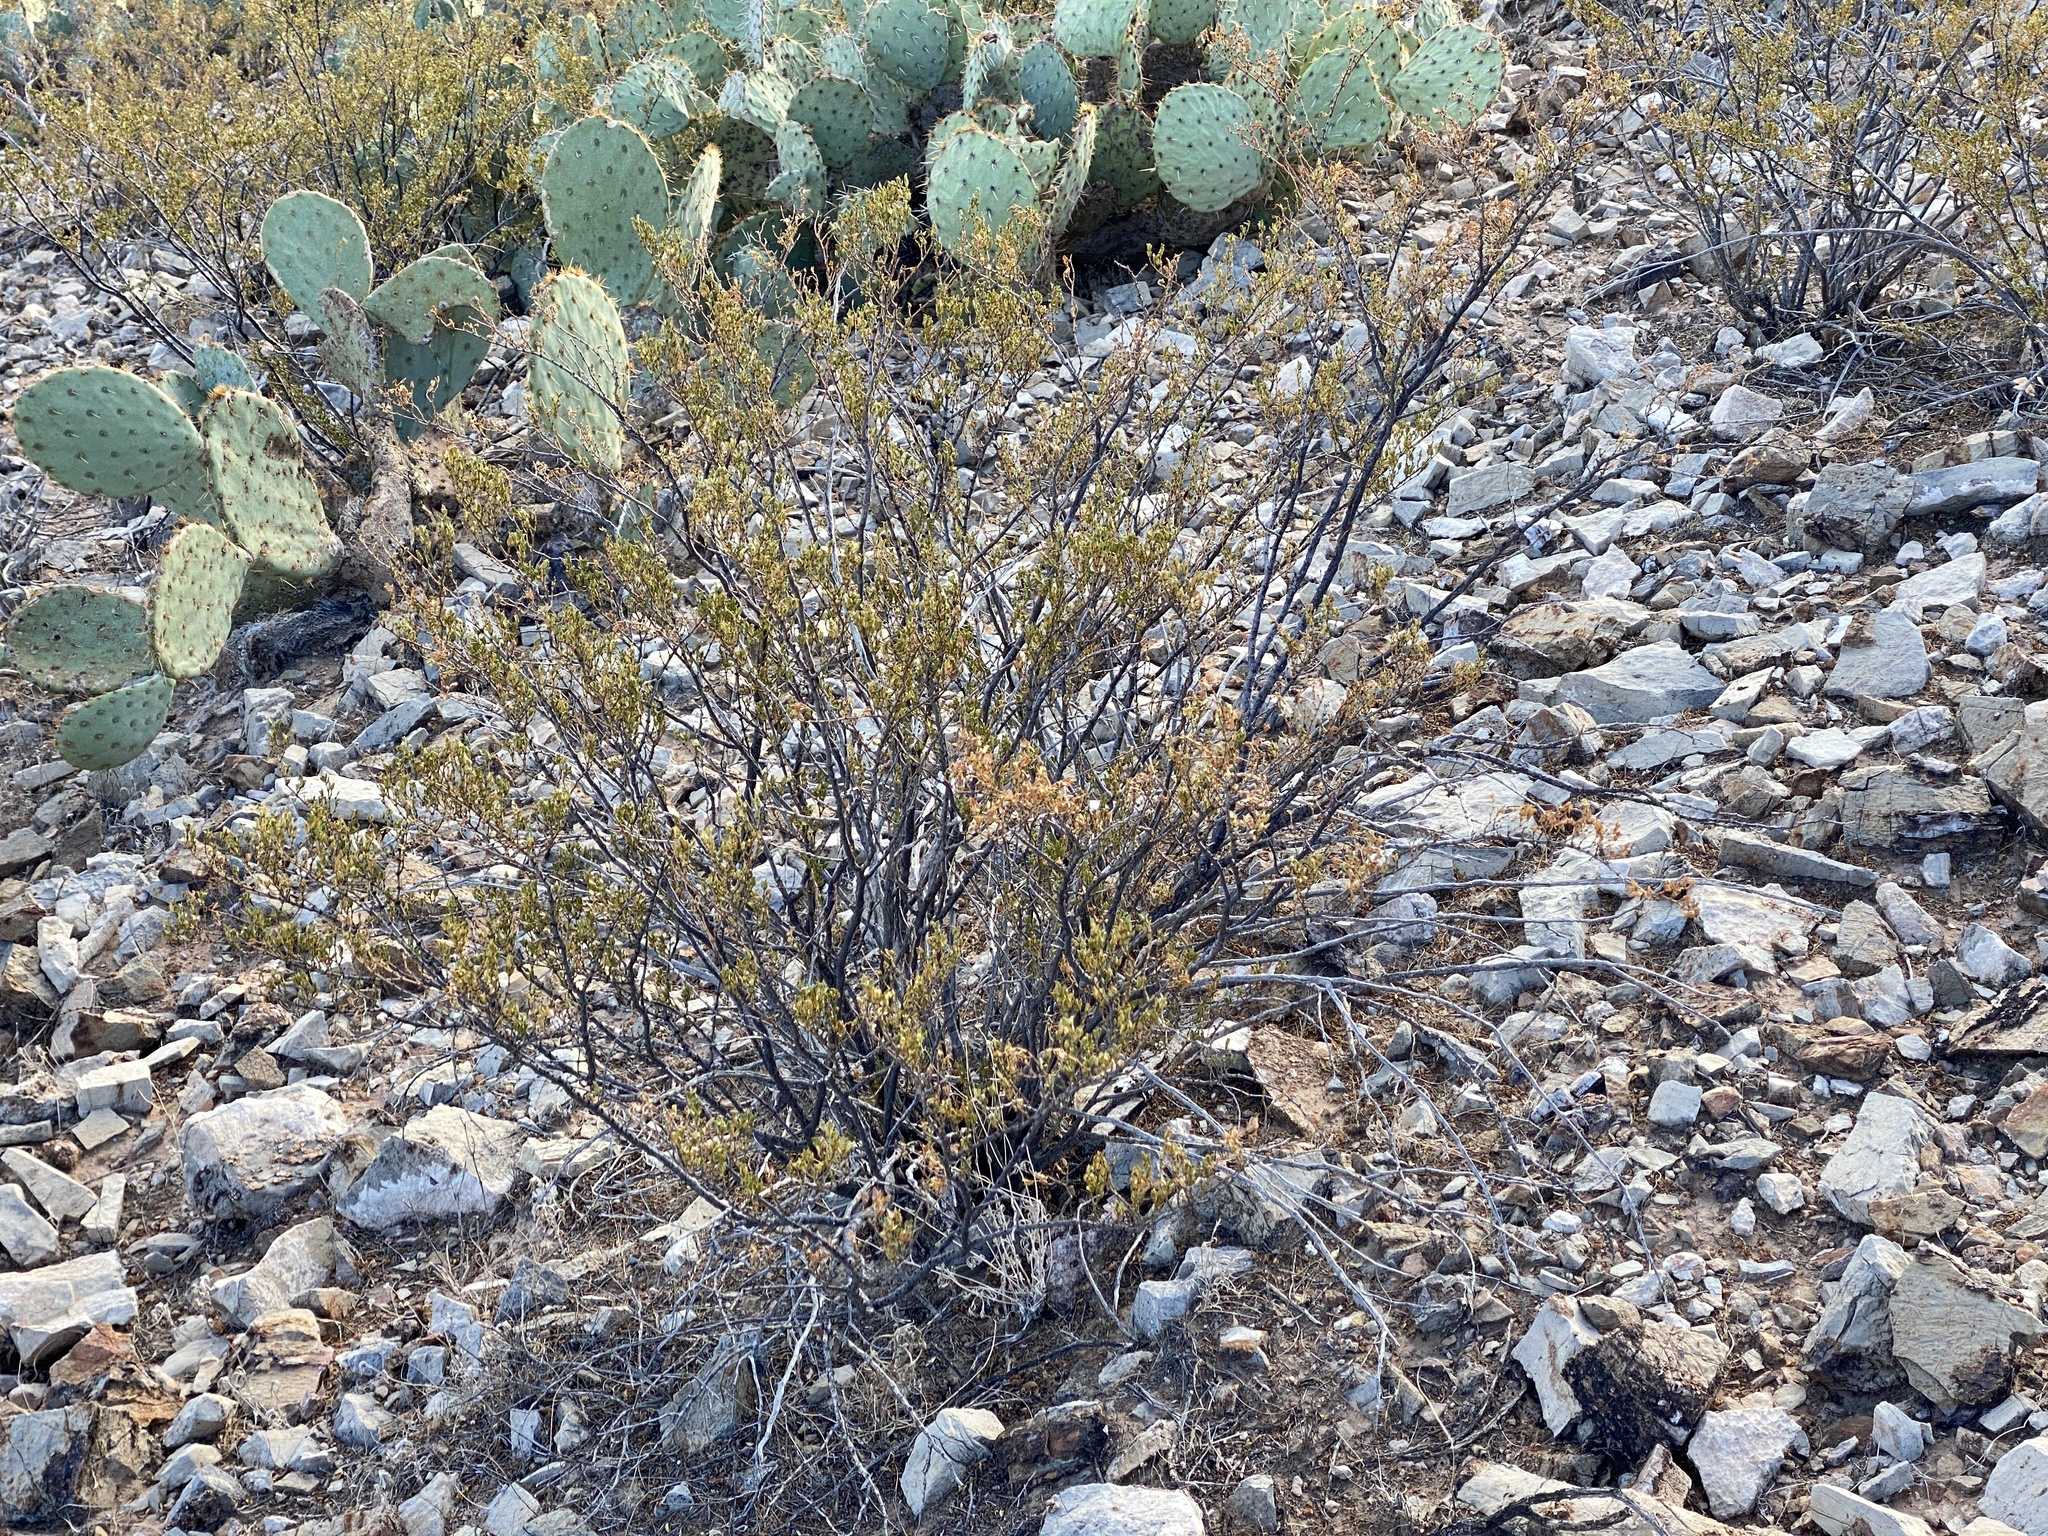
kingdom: Plantae
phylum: Tracheophyta
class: Magnoliopsida
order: Zygophyllales
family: Zygophyllaceae
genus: Larrea
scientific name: Larrea tridentata
